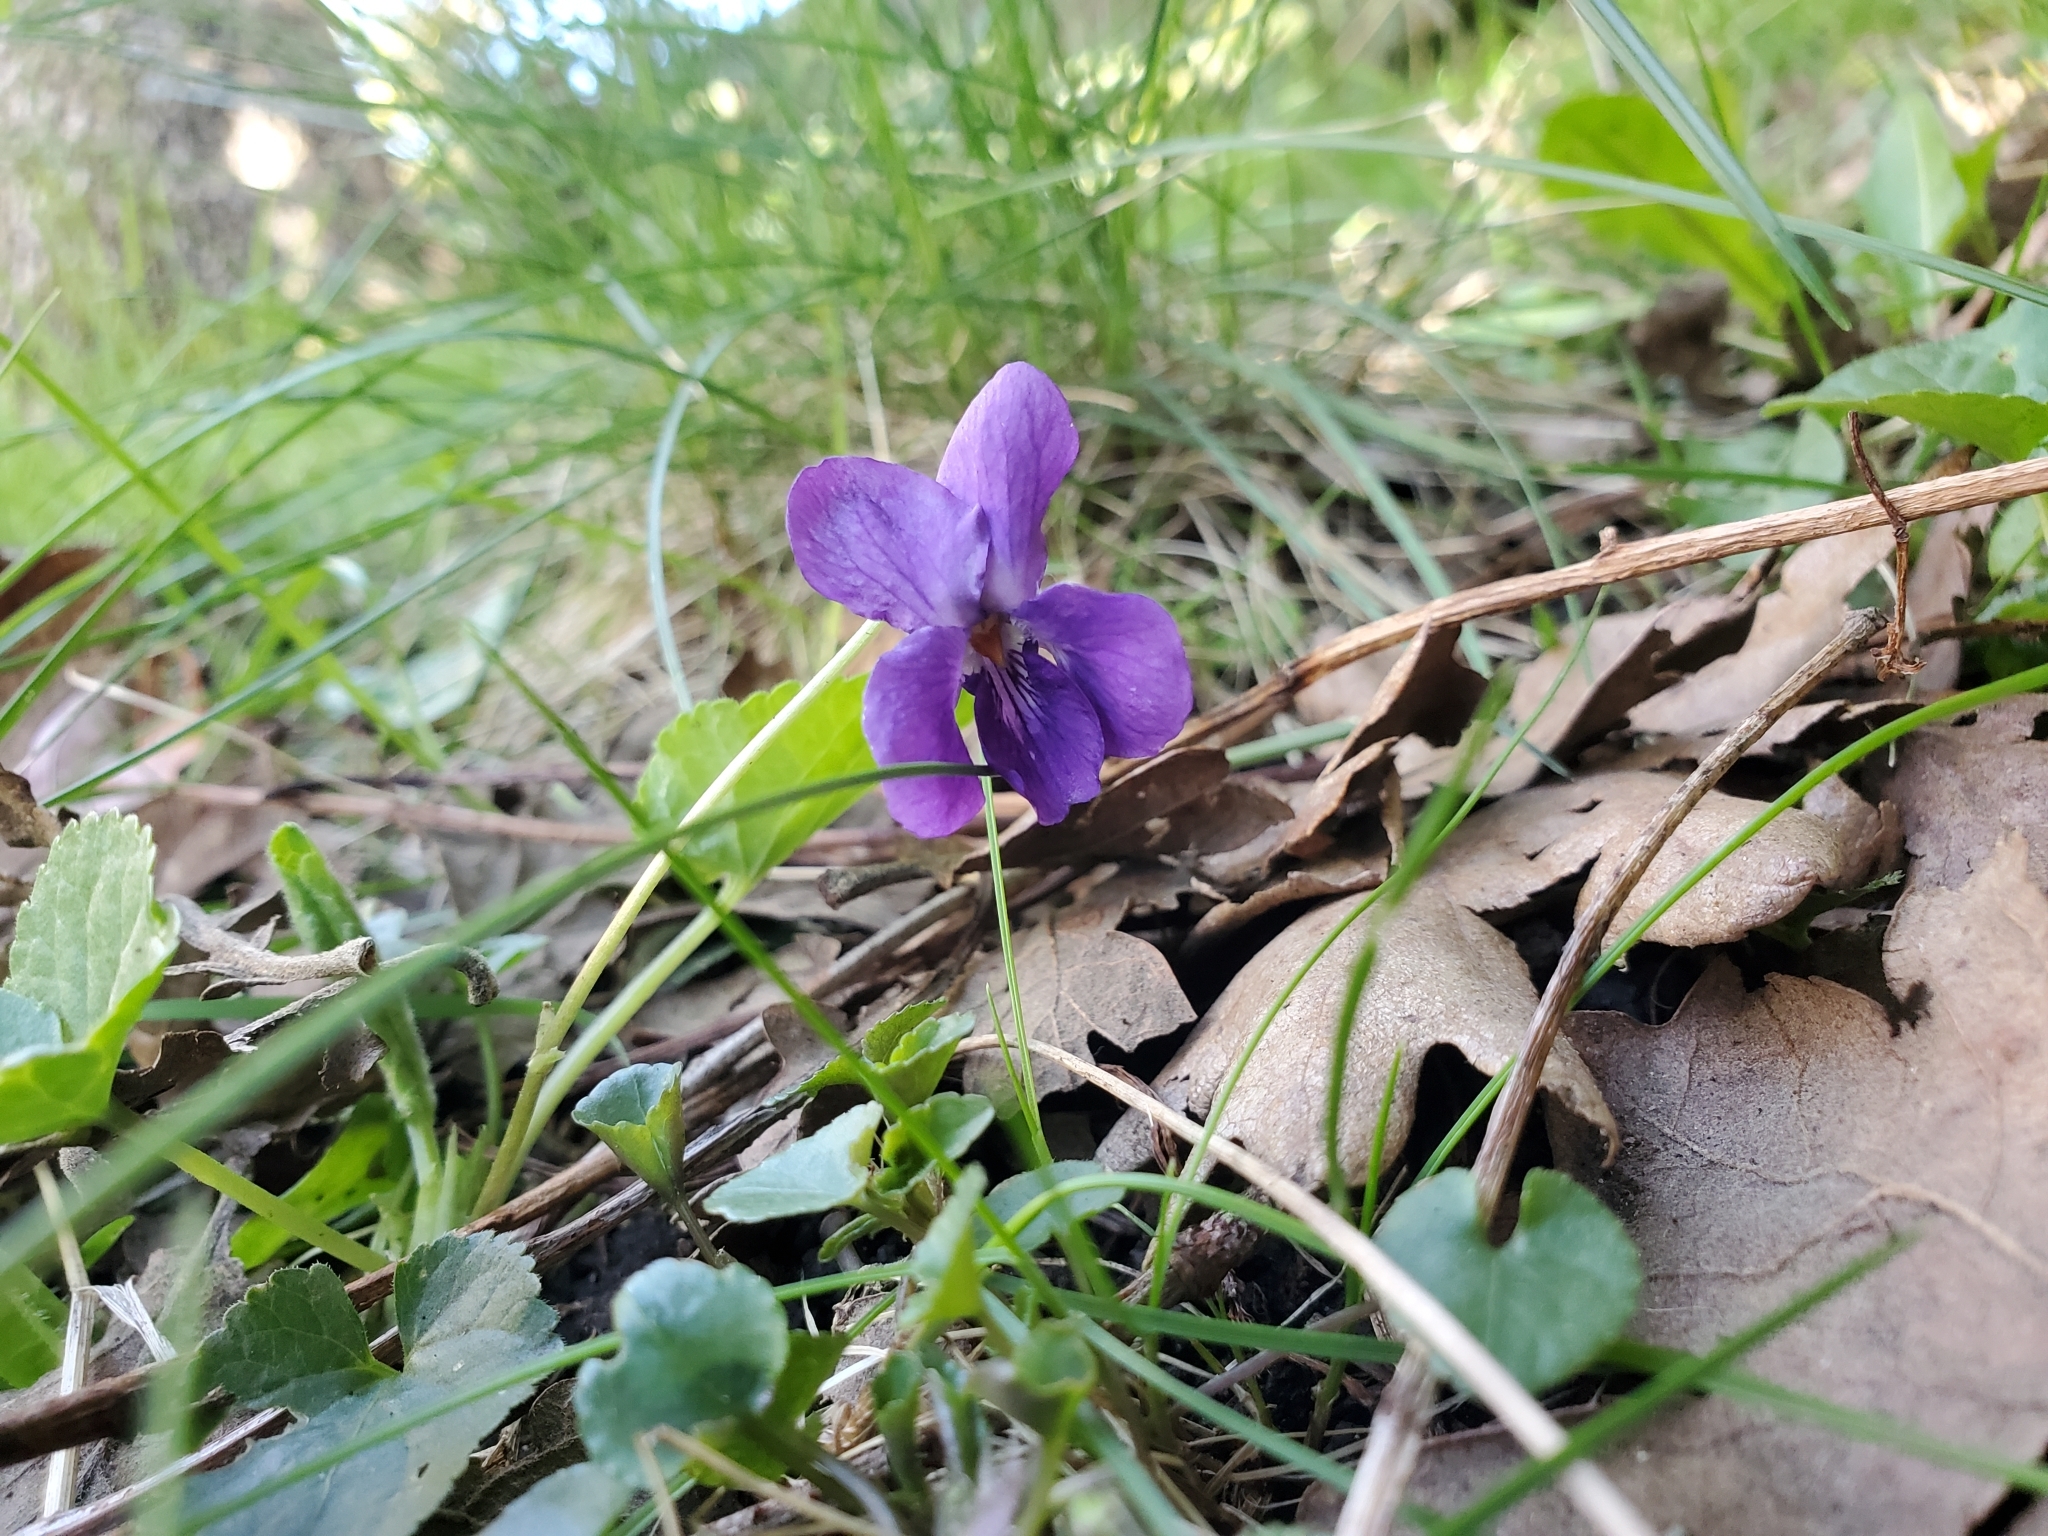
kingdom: Plantae
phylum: Tracheophyta
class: Magnoliopsida
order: Malpighiales
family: Violaceae
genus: Viola
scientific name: Viola odorata
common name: Sweet violet
